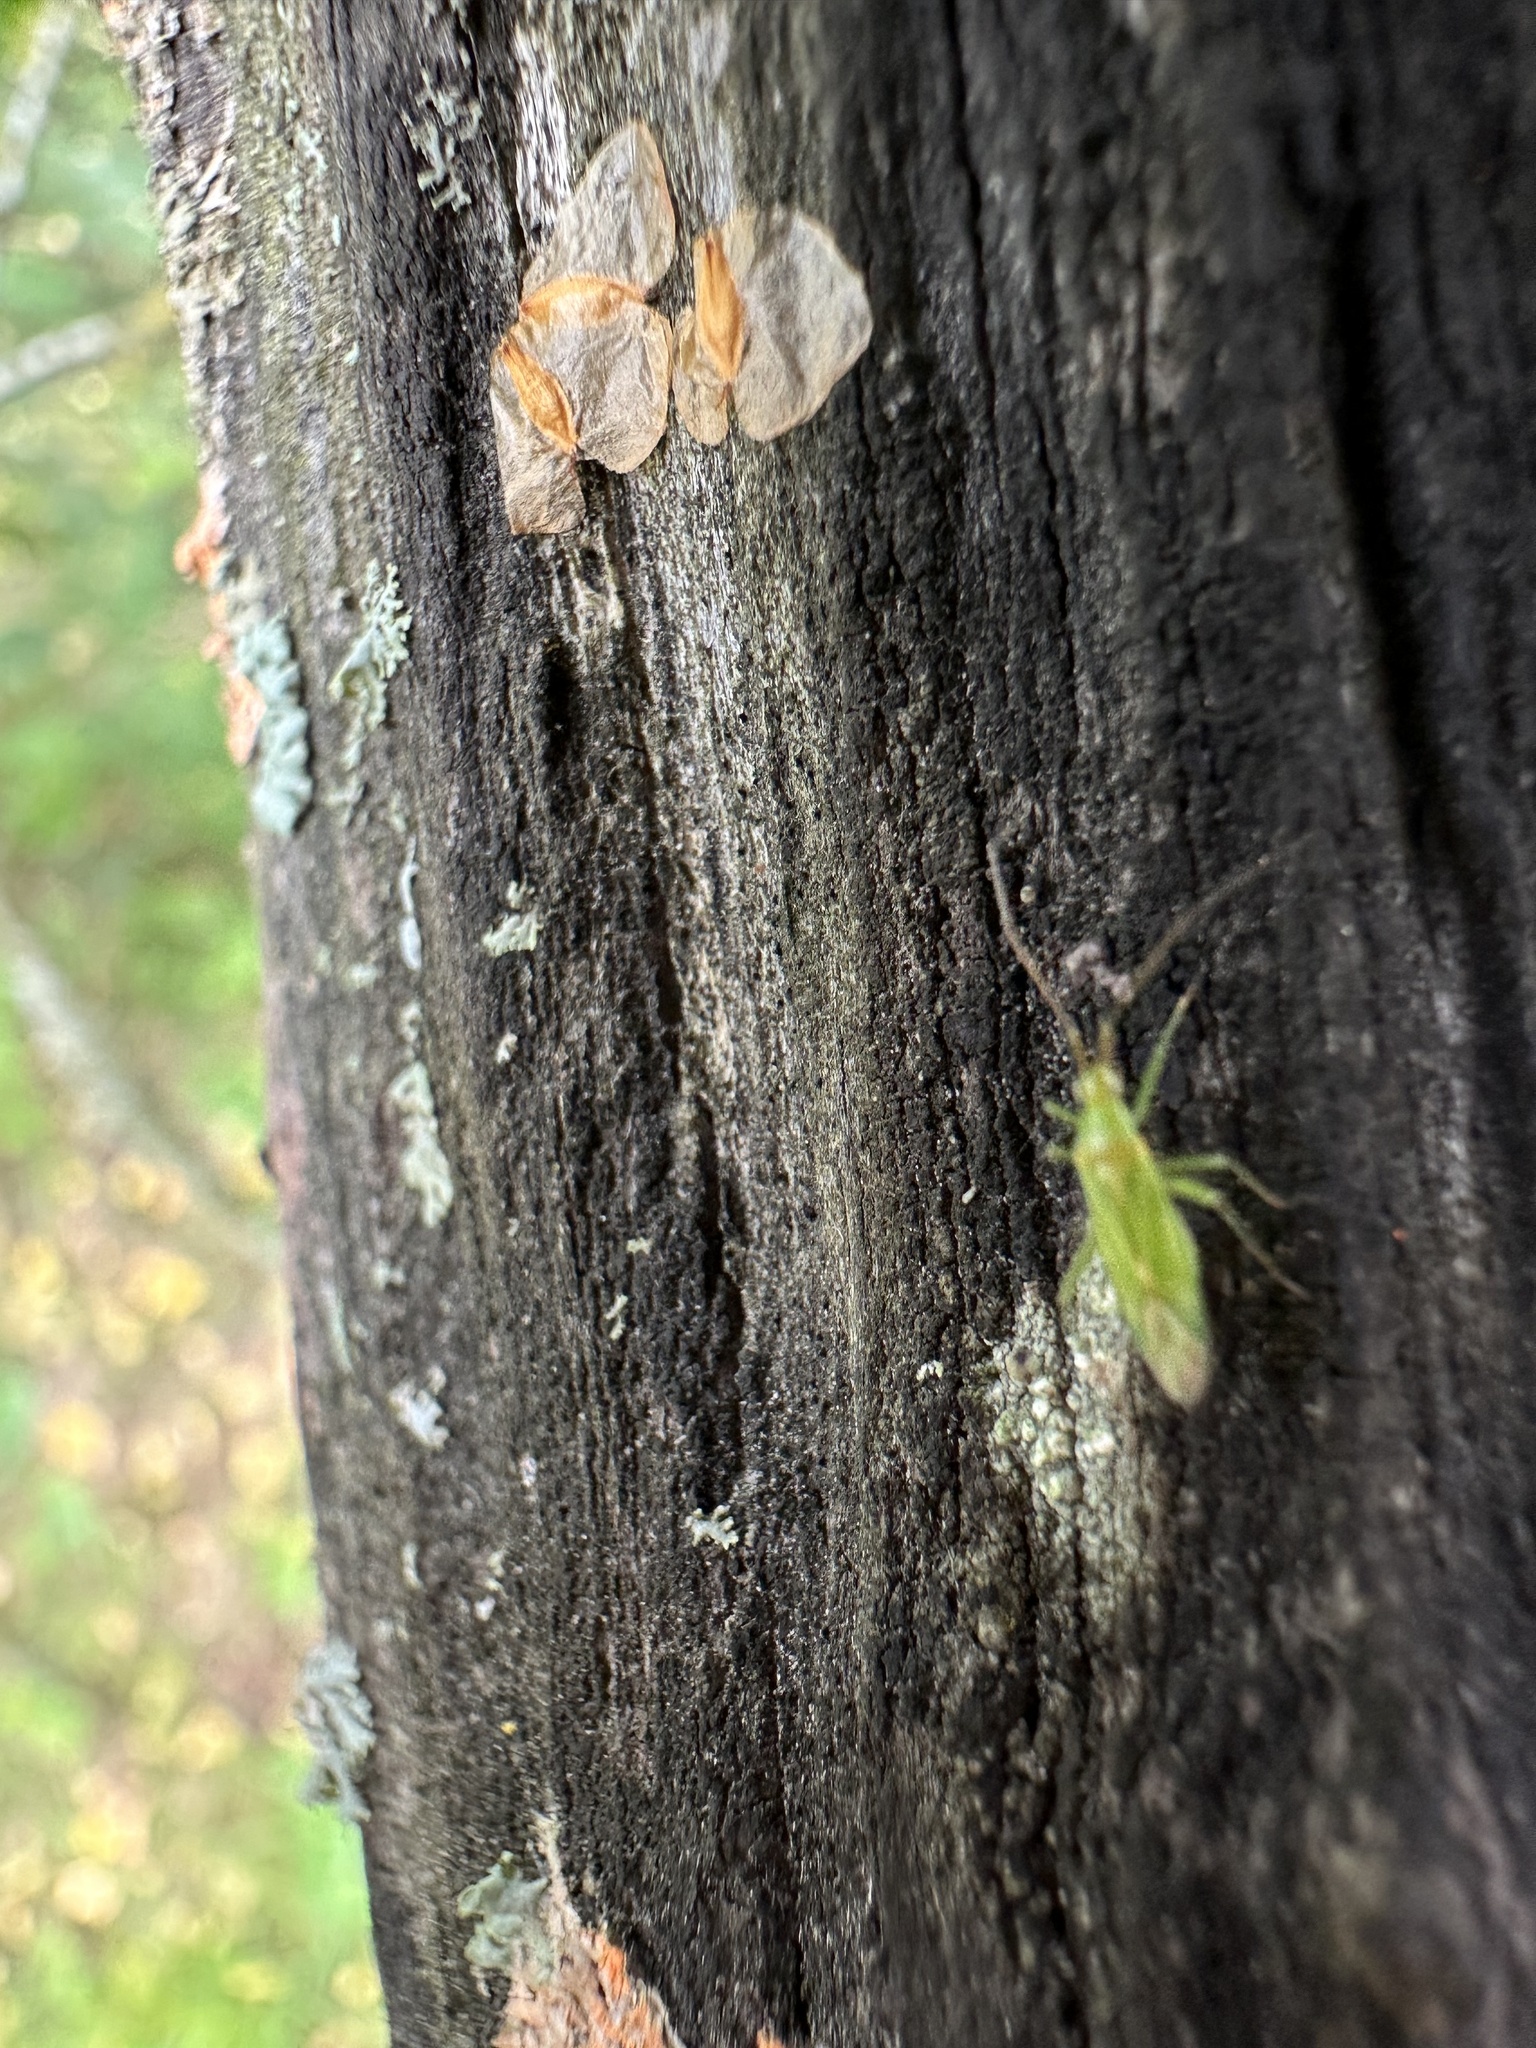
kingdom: Animalia
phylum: Arthropoda
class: Insecta
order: Hemiptera
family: Miridae
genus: Blepharidopterus
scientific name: Blepharidopterus angulatus
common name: Plant bug
